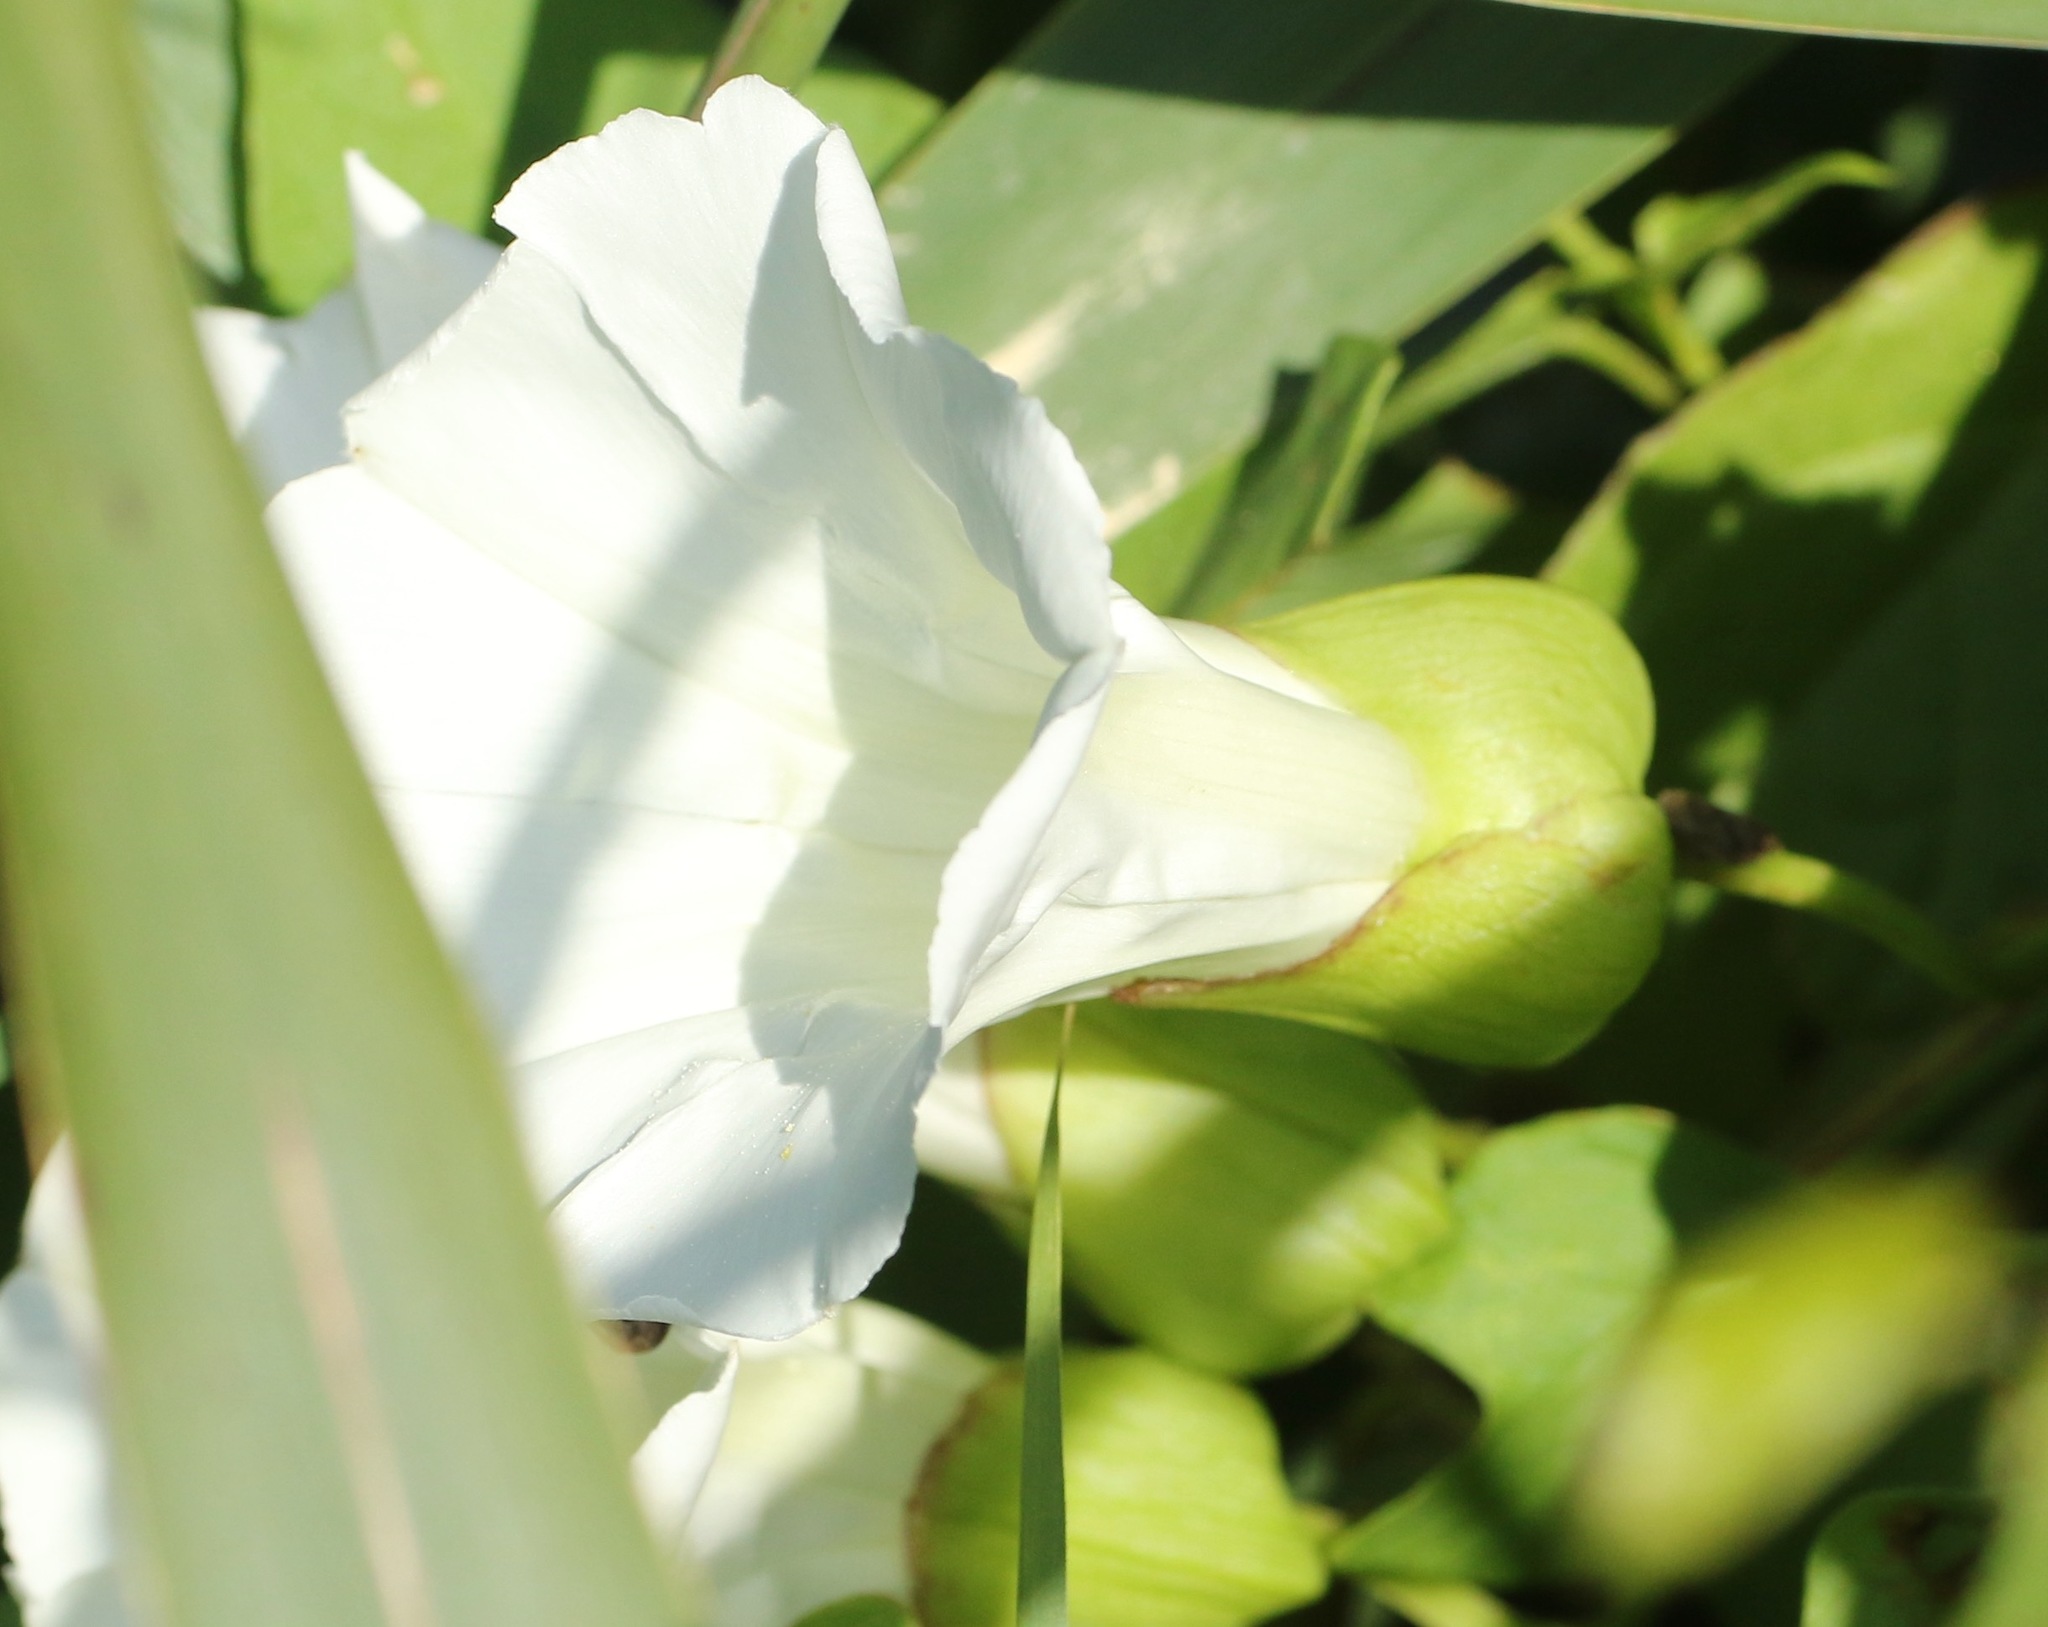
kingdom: Plantae
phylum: Tracheophyta
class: Magnoliopsida
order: Solanales
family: Convolvulaceae
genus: Calystegia
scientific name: Calystegia silvatica
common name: Large bindweed
